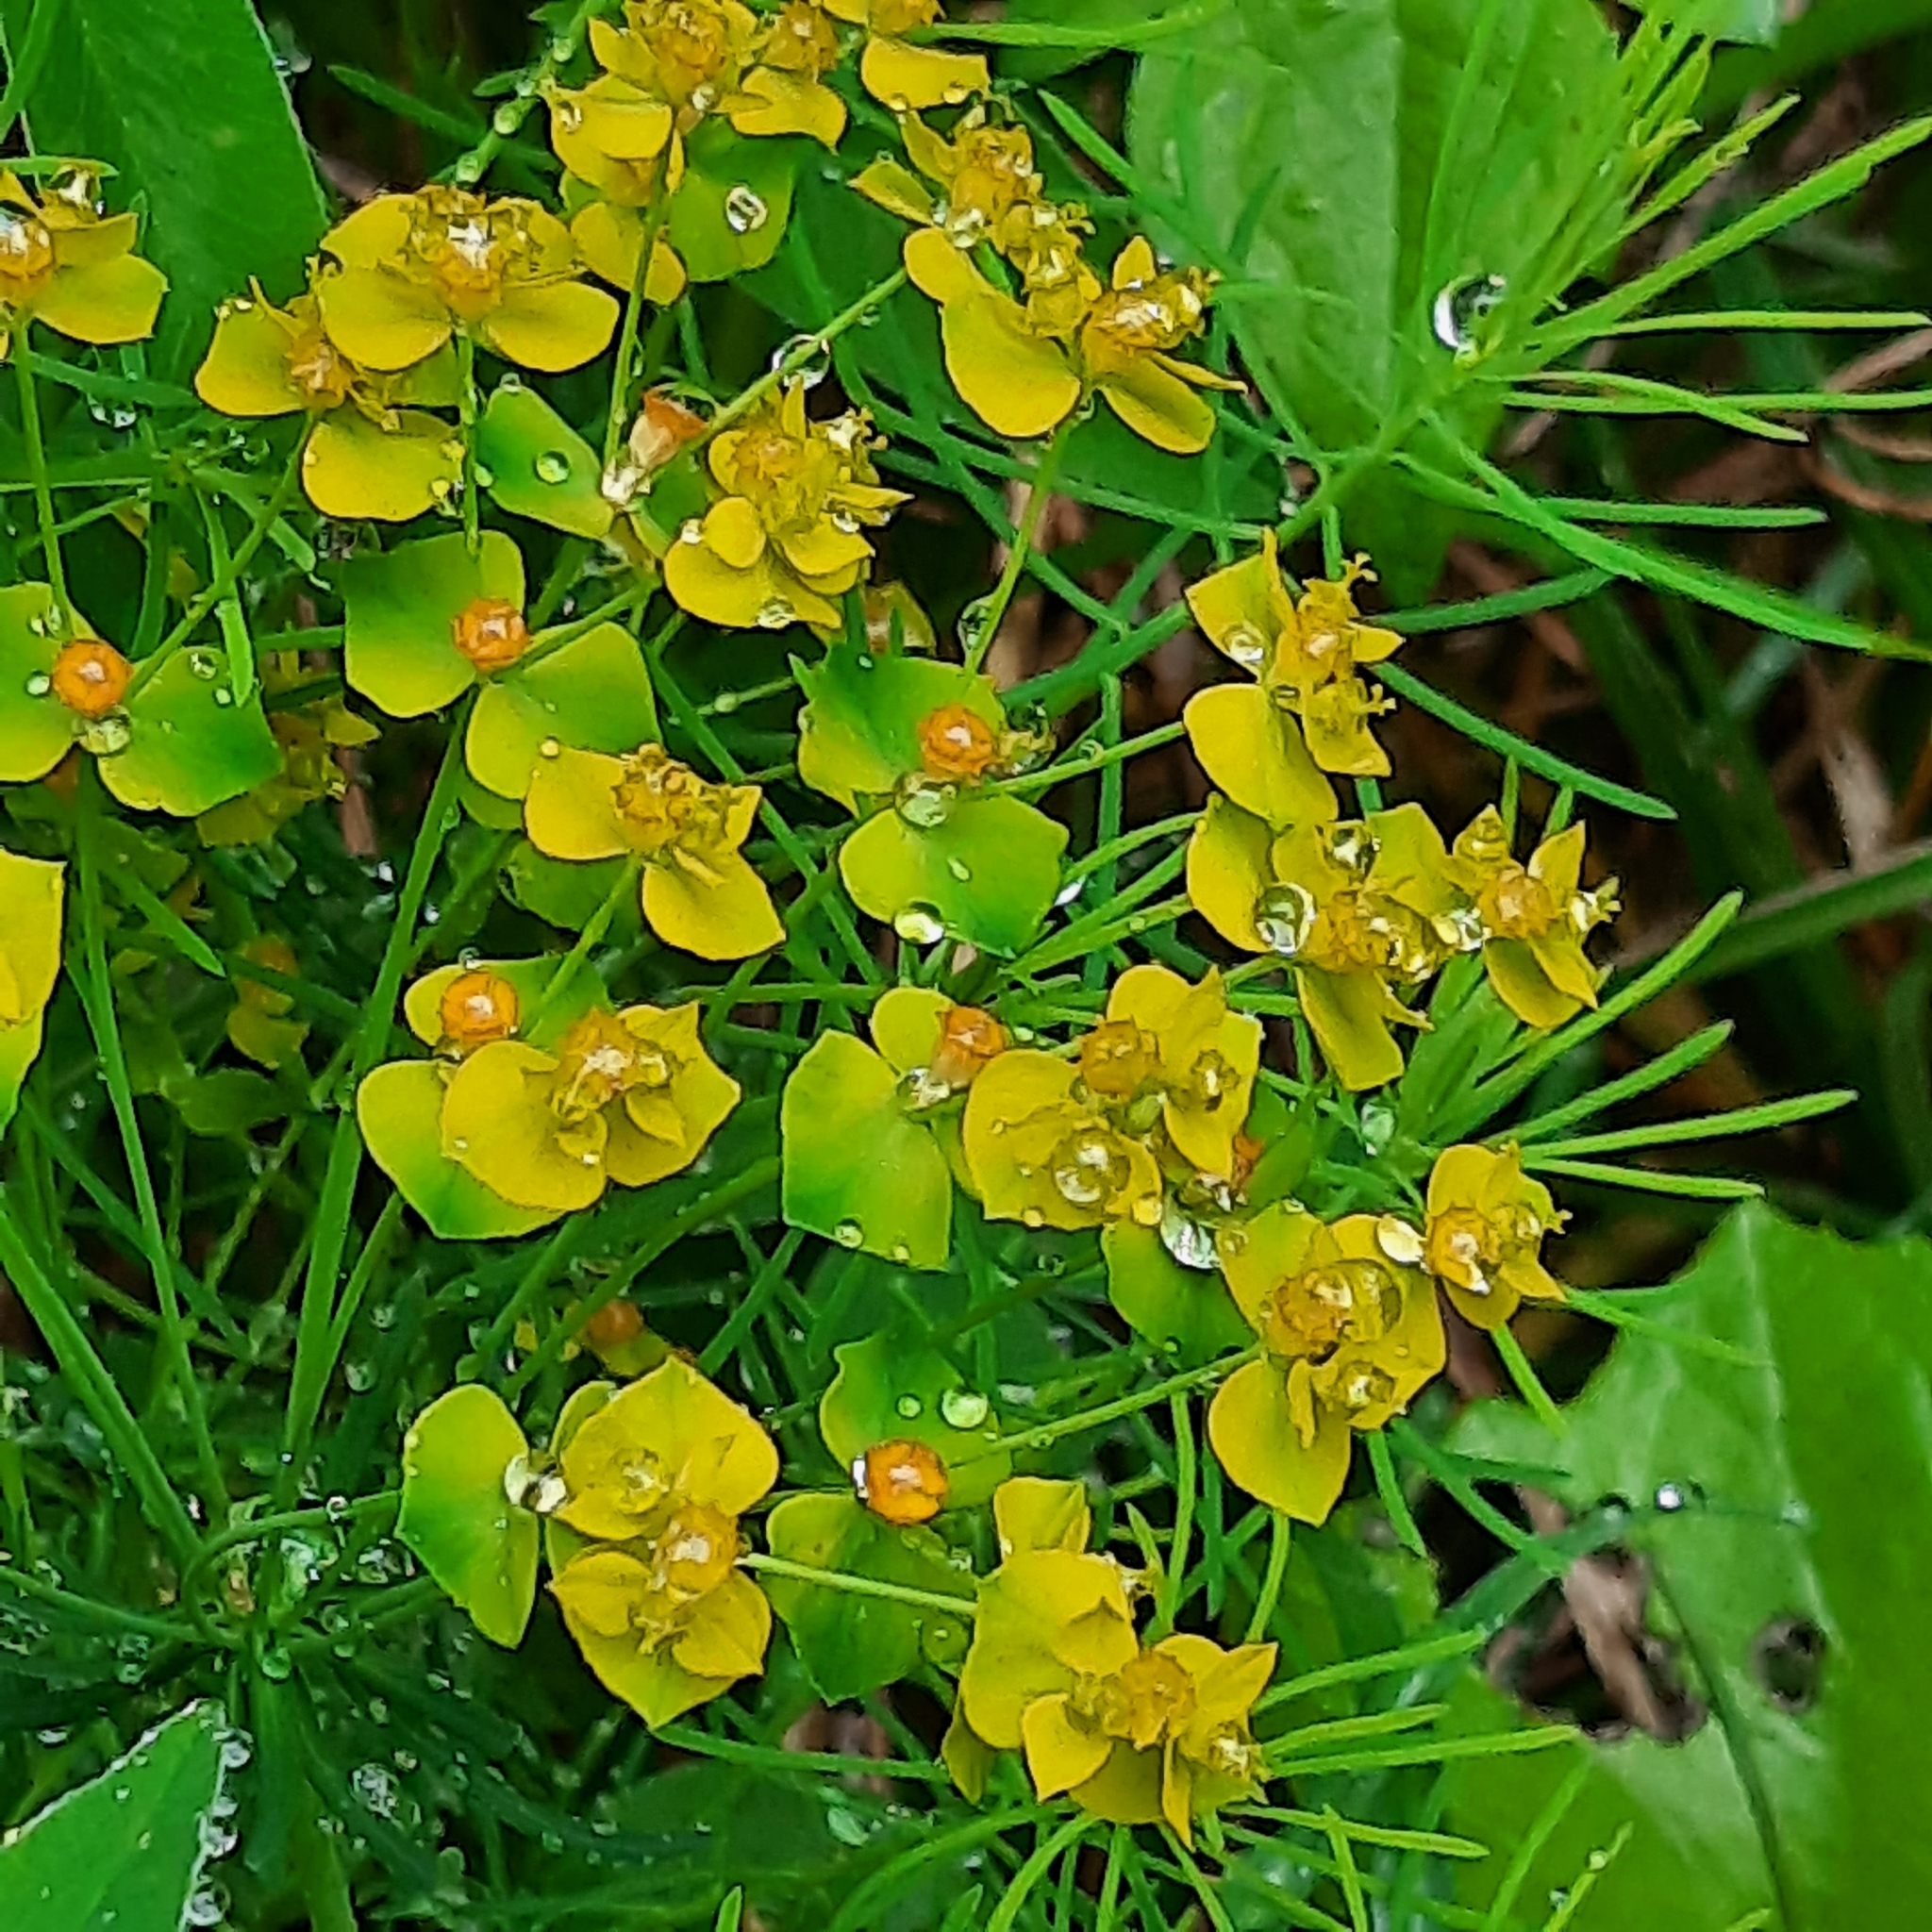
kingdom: Plantae
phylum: Tracheophyta
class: Magnoliopsida
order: Malpighiales
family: Euphorbiaceae
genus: Euphorbia
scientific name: Euphorbia cyparissias
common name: Cypress spurge
